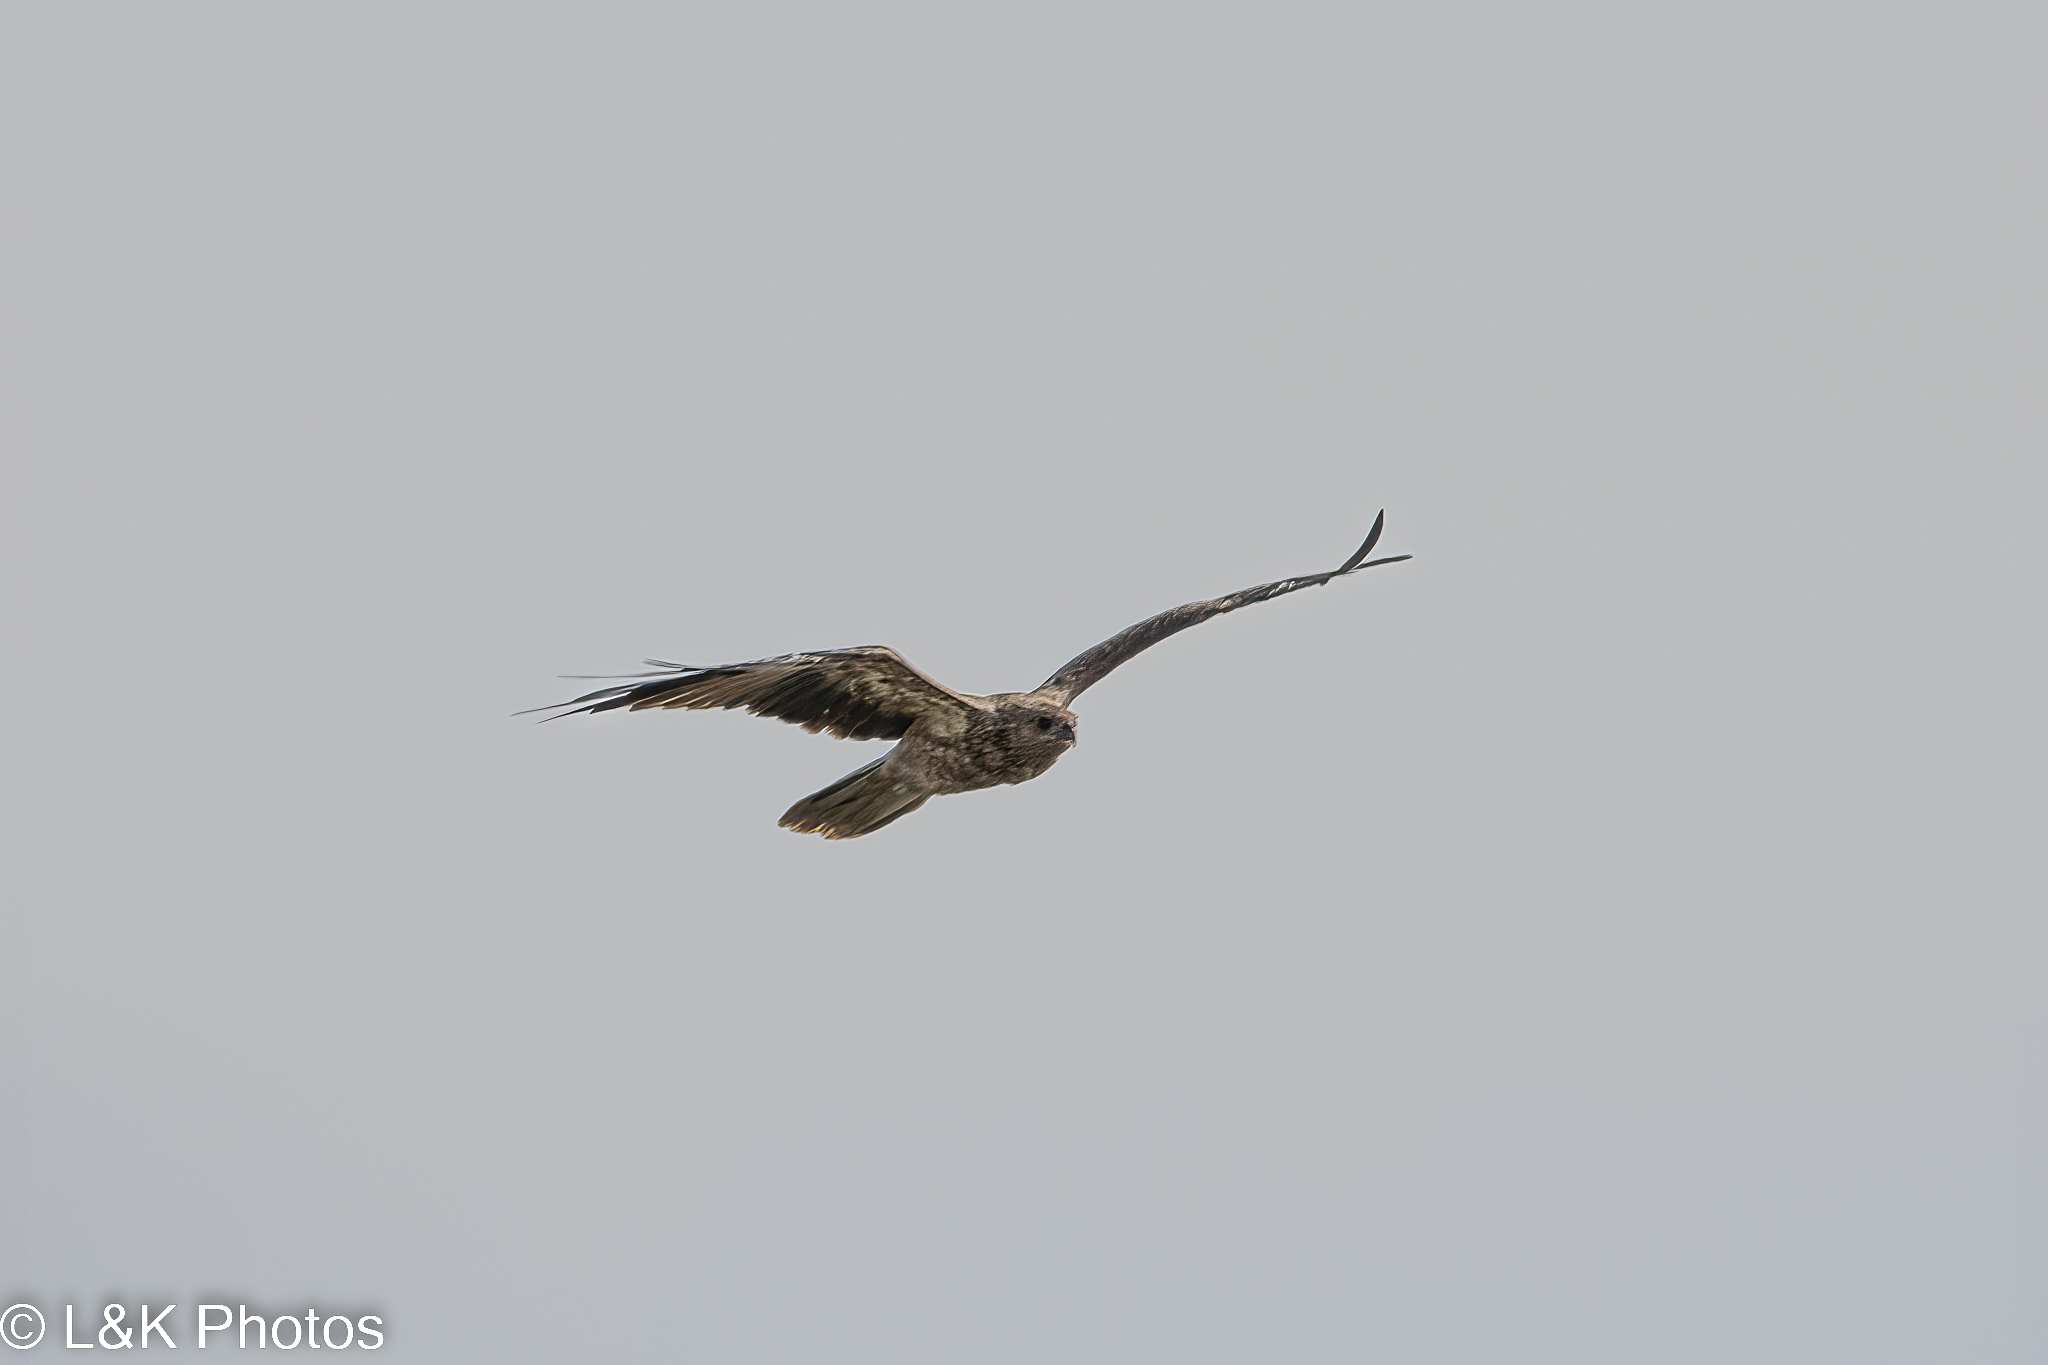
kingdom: Animalia
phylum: Chordata
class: Aves
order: Accipitriformes
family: Accipitridae
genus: Haliastur
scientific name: Haliastur sphenurus
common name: Whistling kite
